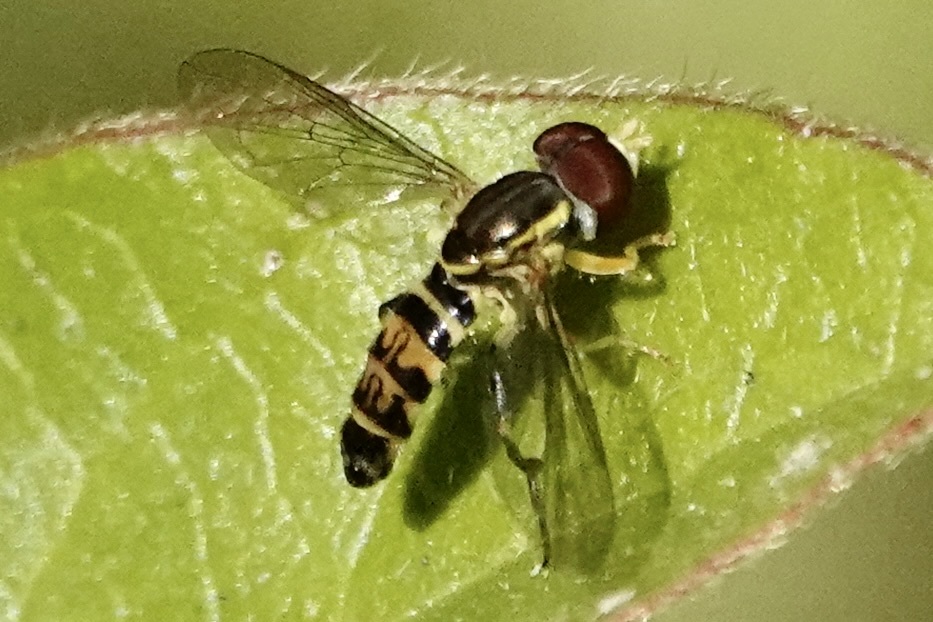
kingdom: Animalia
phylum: Arthropoda
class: Insecta
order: Diptera
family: Syrphidae
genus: Toxomerus
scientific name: Toxomerus geminatus
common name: Eastern calligrapher
